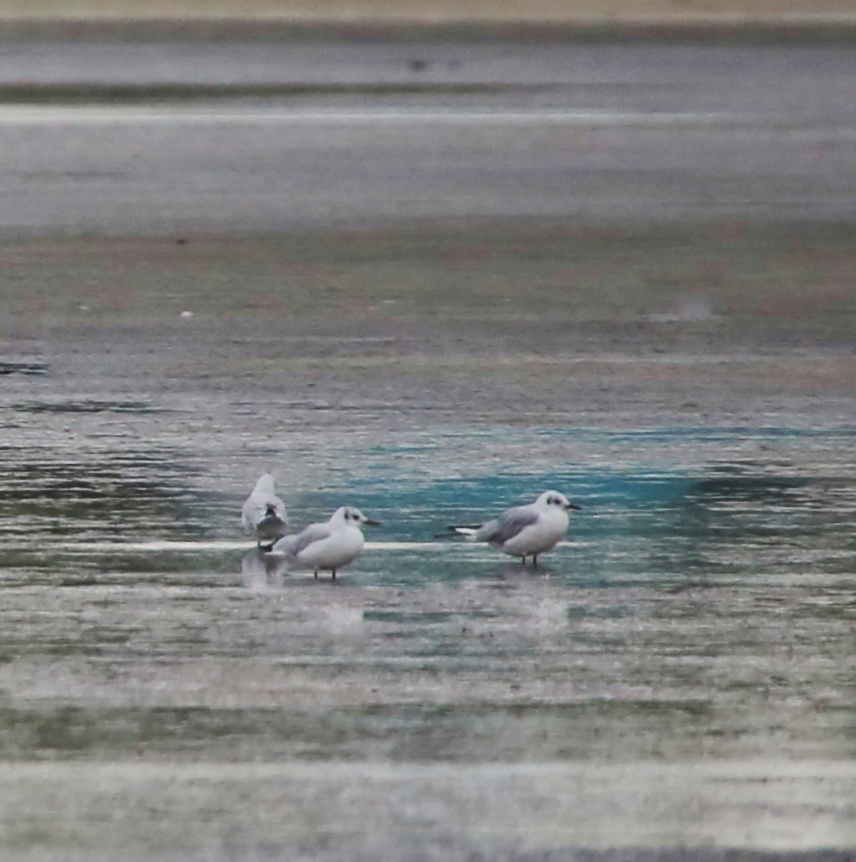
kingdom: Animalia
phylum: Chordata
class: Aves
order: Charadriiformes
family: Laridae
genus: Chroicocephalus
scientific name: Chroicocephalus ridibundus
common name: Black-headed gull
